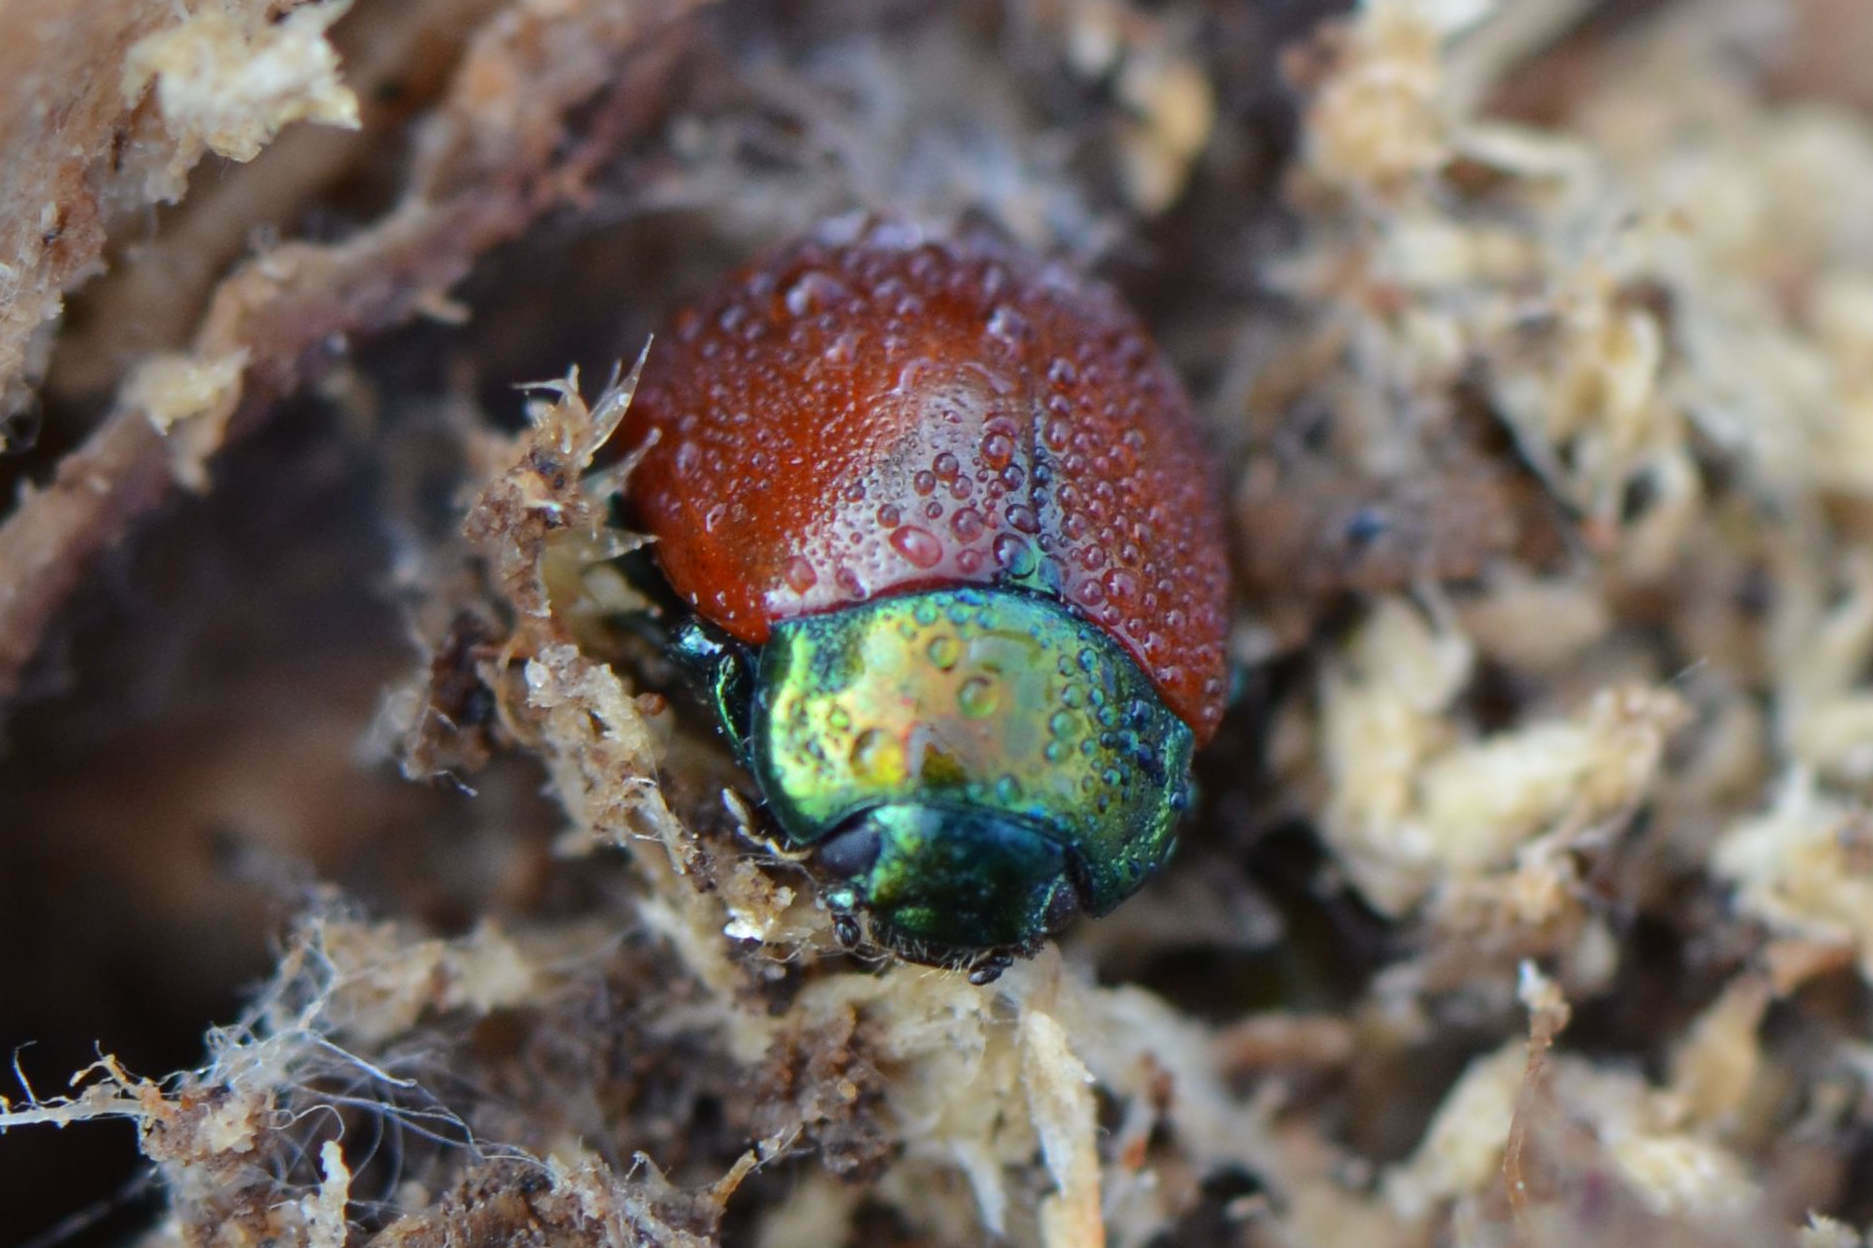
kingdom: Animalia
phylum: Arthropoda
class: Insecta
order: Coleoptera
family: Chrysomelidae
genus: Chrysomela
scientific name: Chrysomela polita
